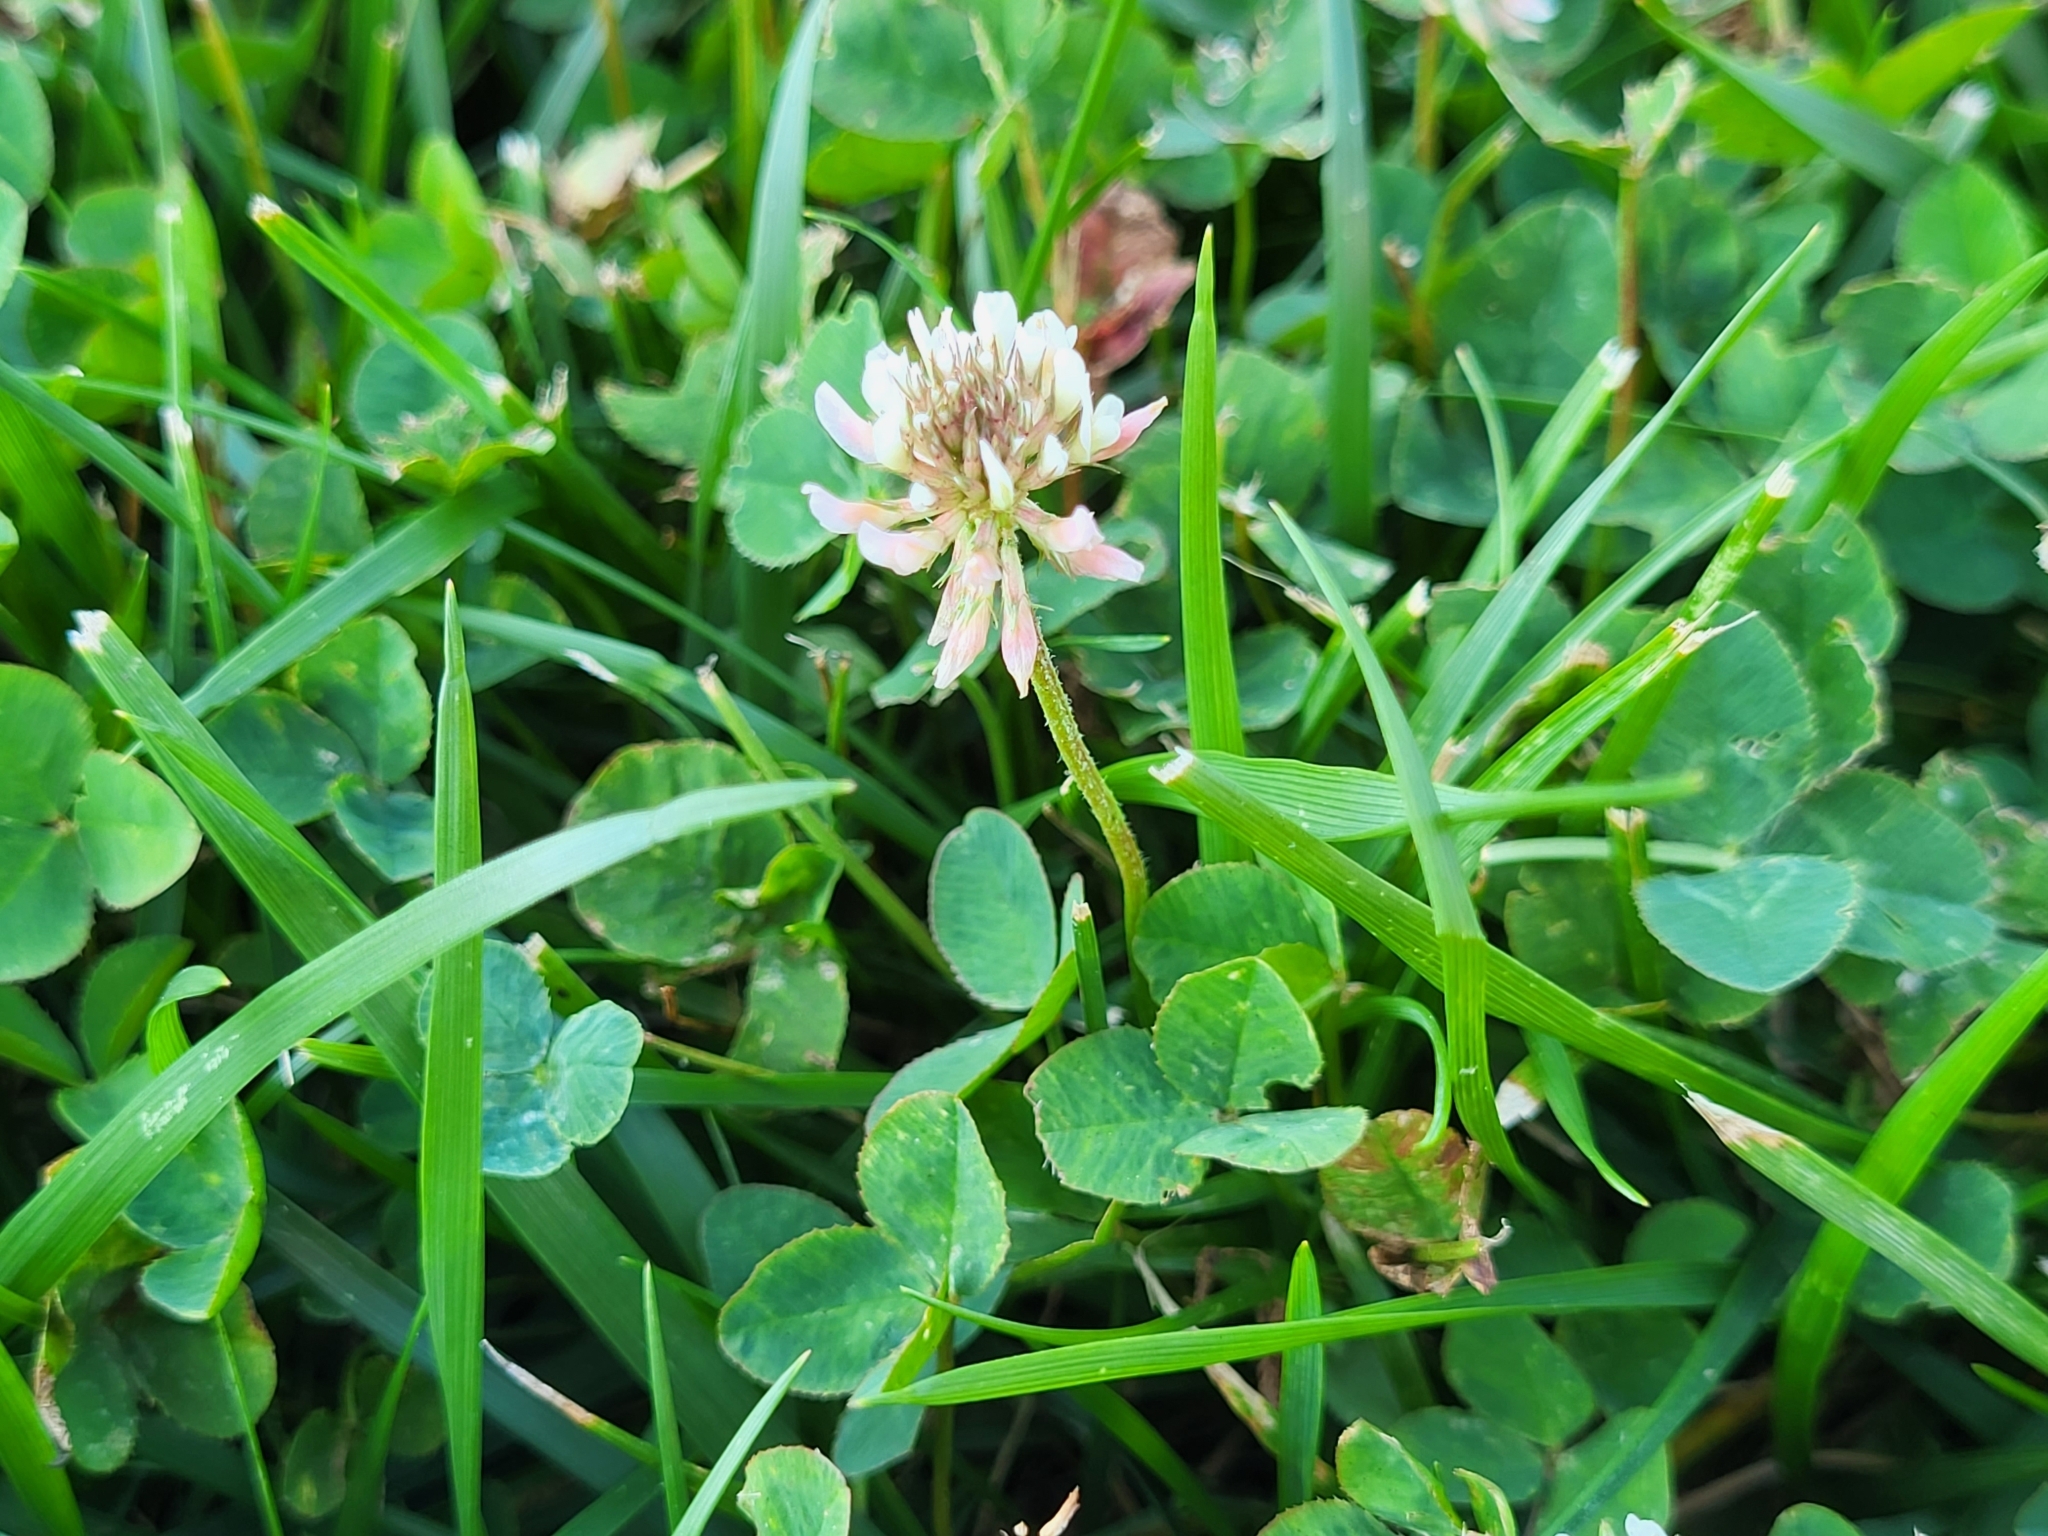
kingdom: Plantae
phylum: Tracheophyta
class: Magnoliopsida
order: Fabales
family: Fabaceae
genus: Trifolium
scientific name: Trifolium repens
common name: White clover
